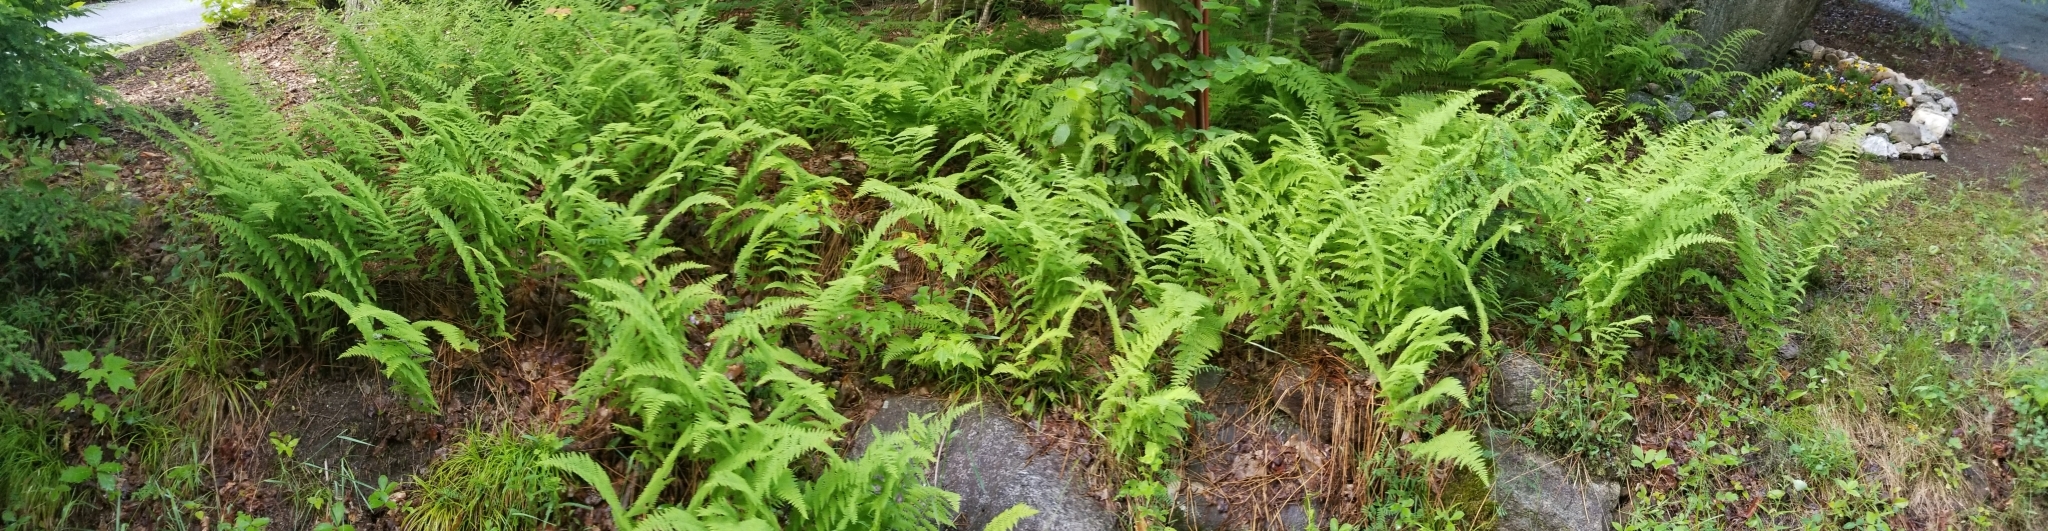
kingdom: Plantae
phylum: Tracheophyta
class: Polypodiopsida
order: Polypodiales
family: Dennstaedtiaceae
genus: Sitobolium
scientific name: Sitobolium punctilobum
